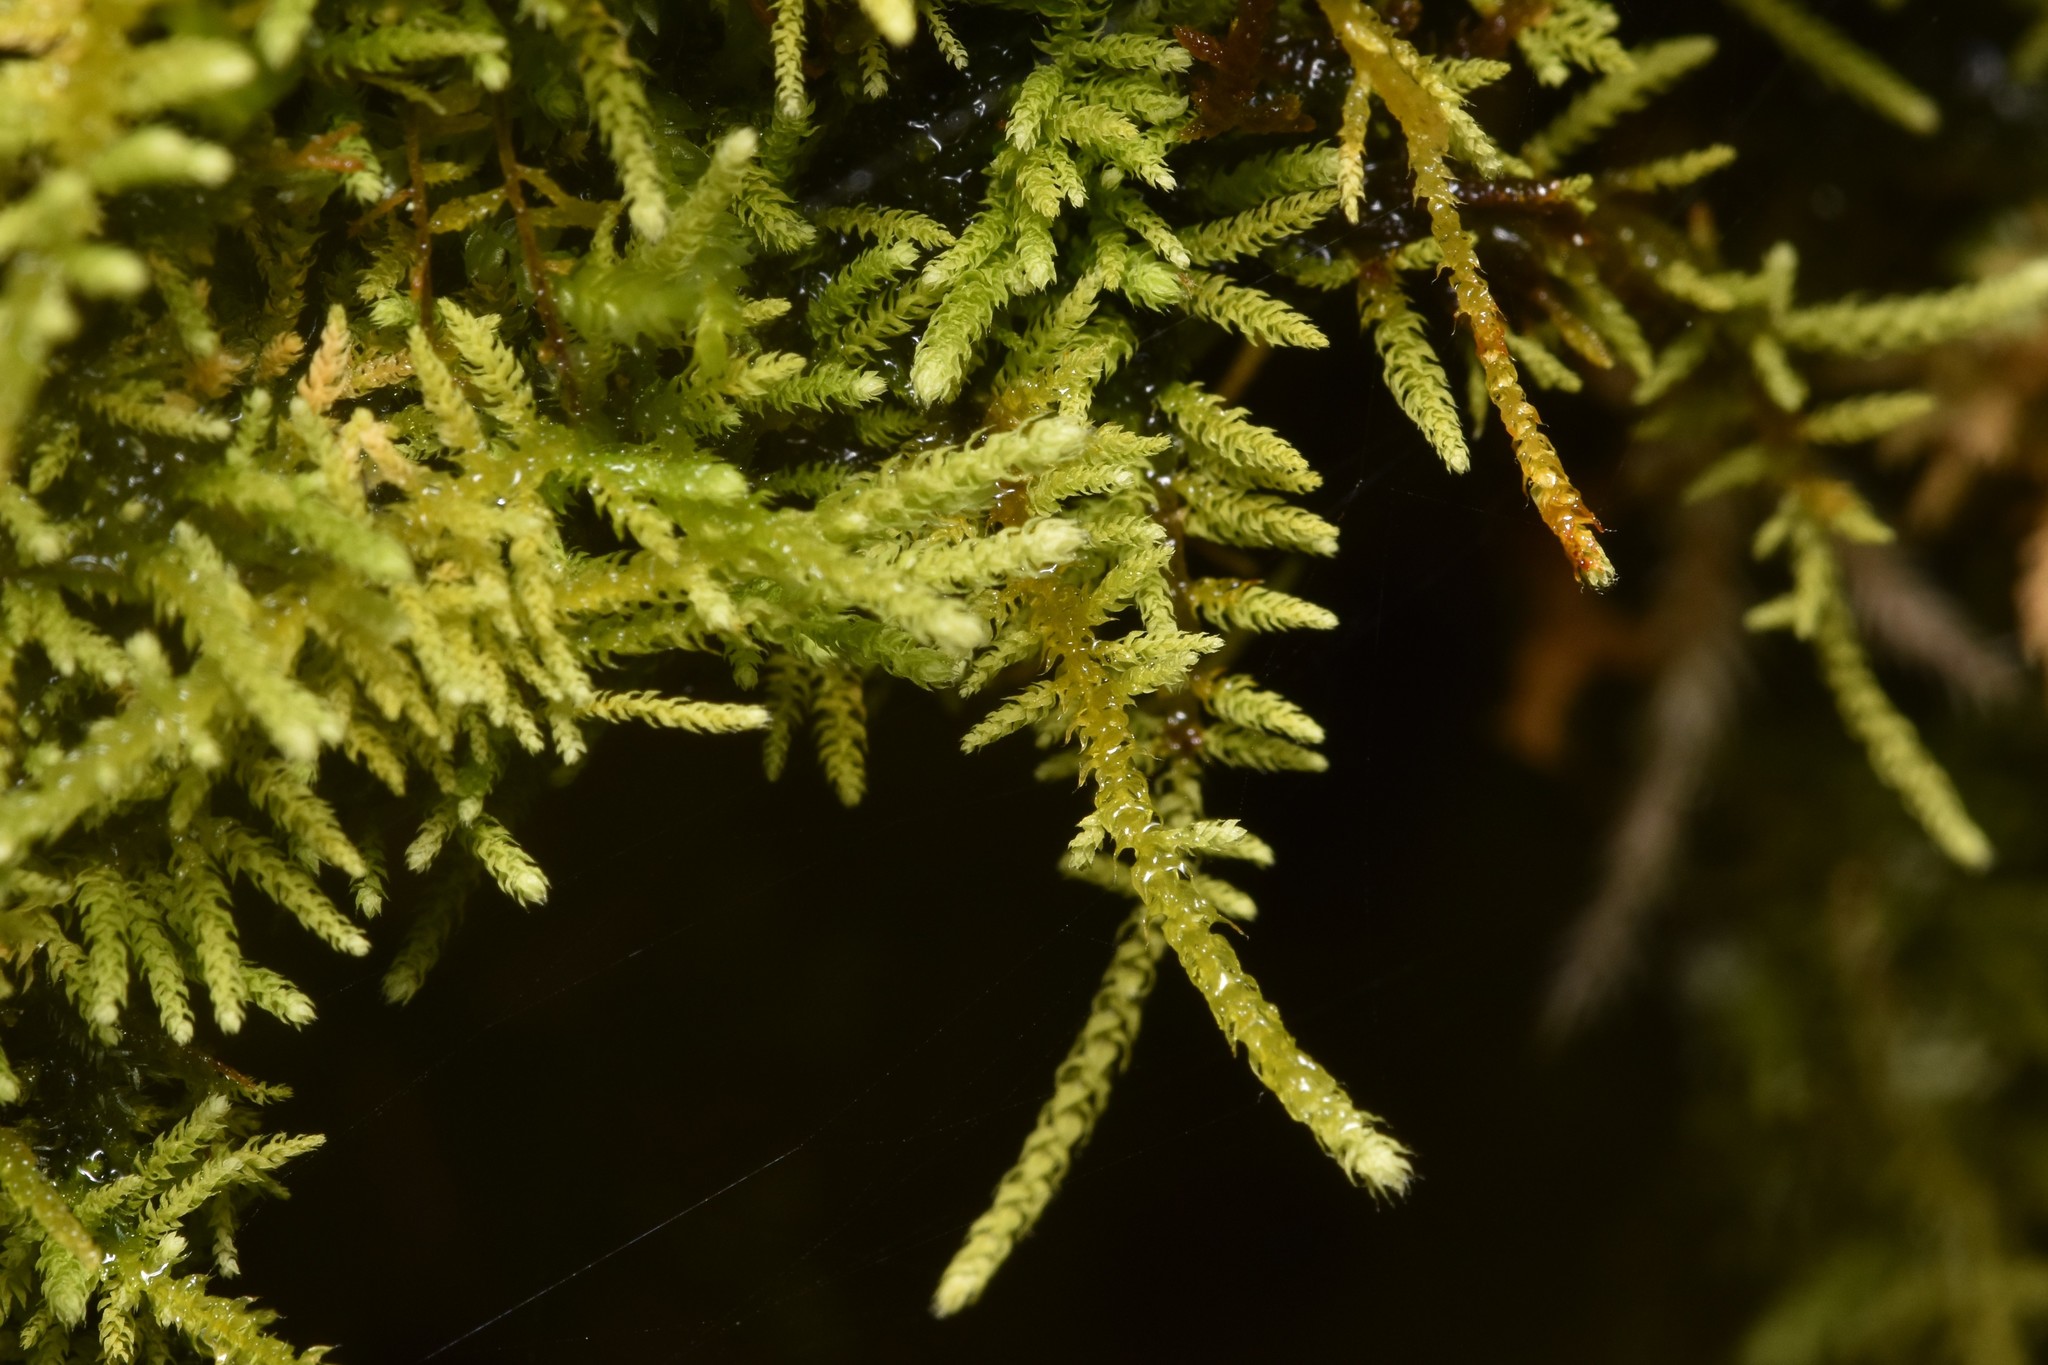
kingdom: Plantae
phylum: Bryophyta
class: Bryopsida
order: Hypnales
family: Brachytheciaceae
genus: Claopodium
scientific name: Claopodium crispifolium
